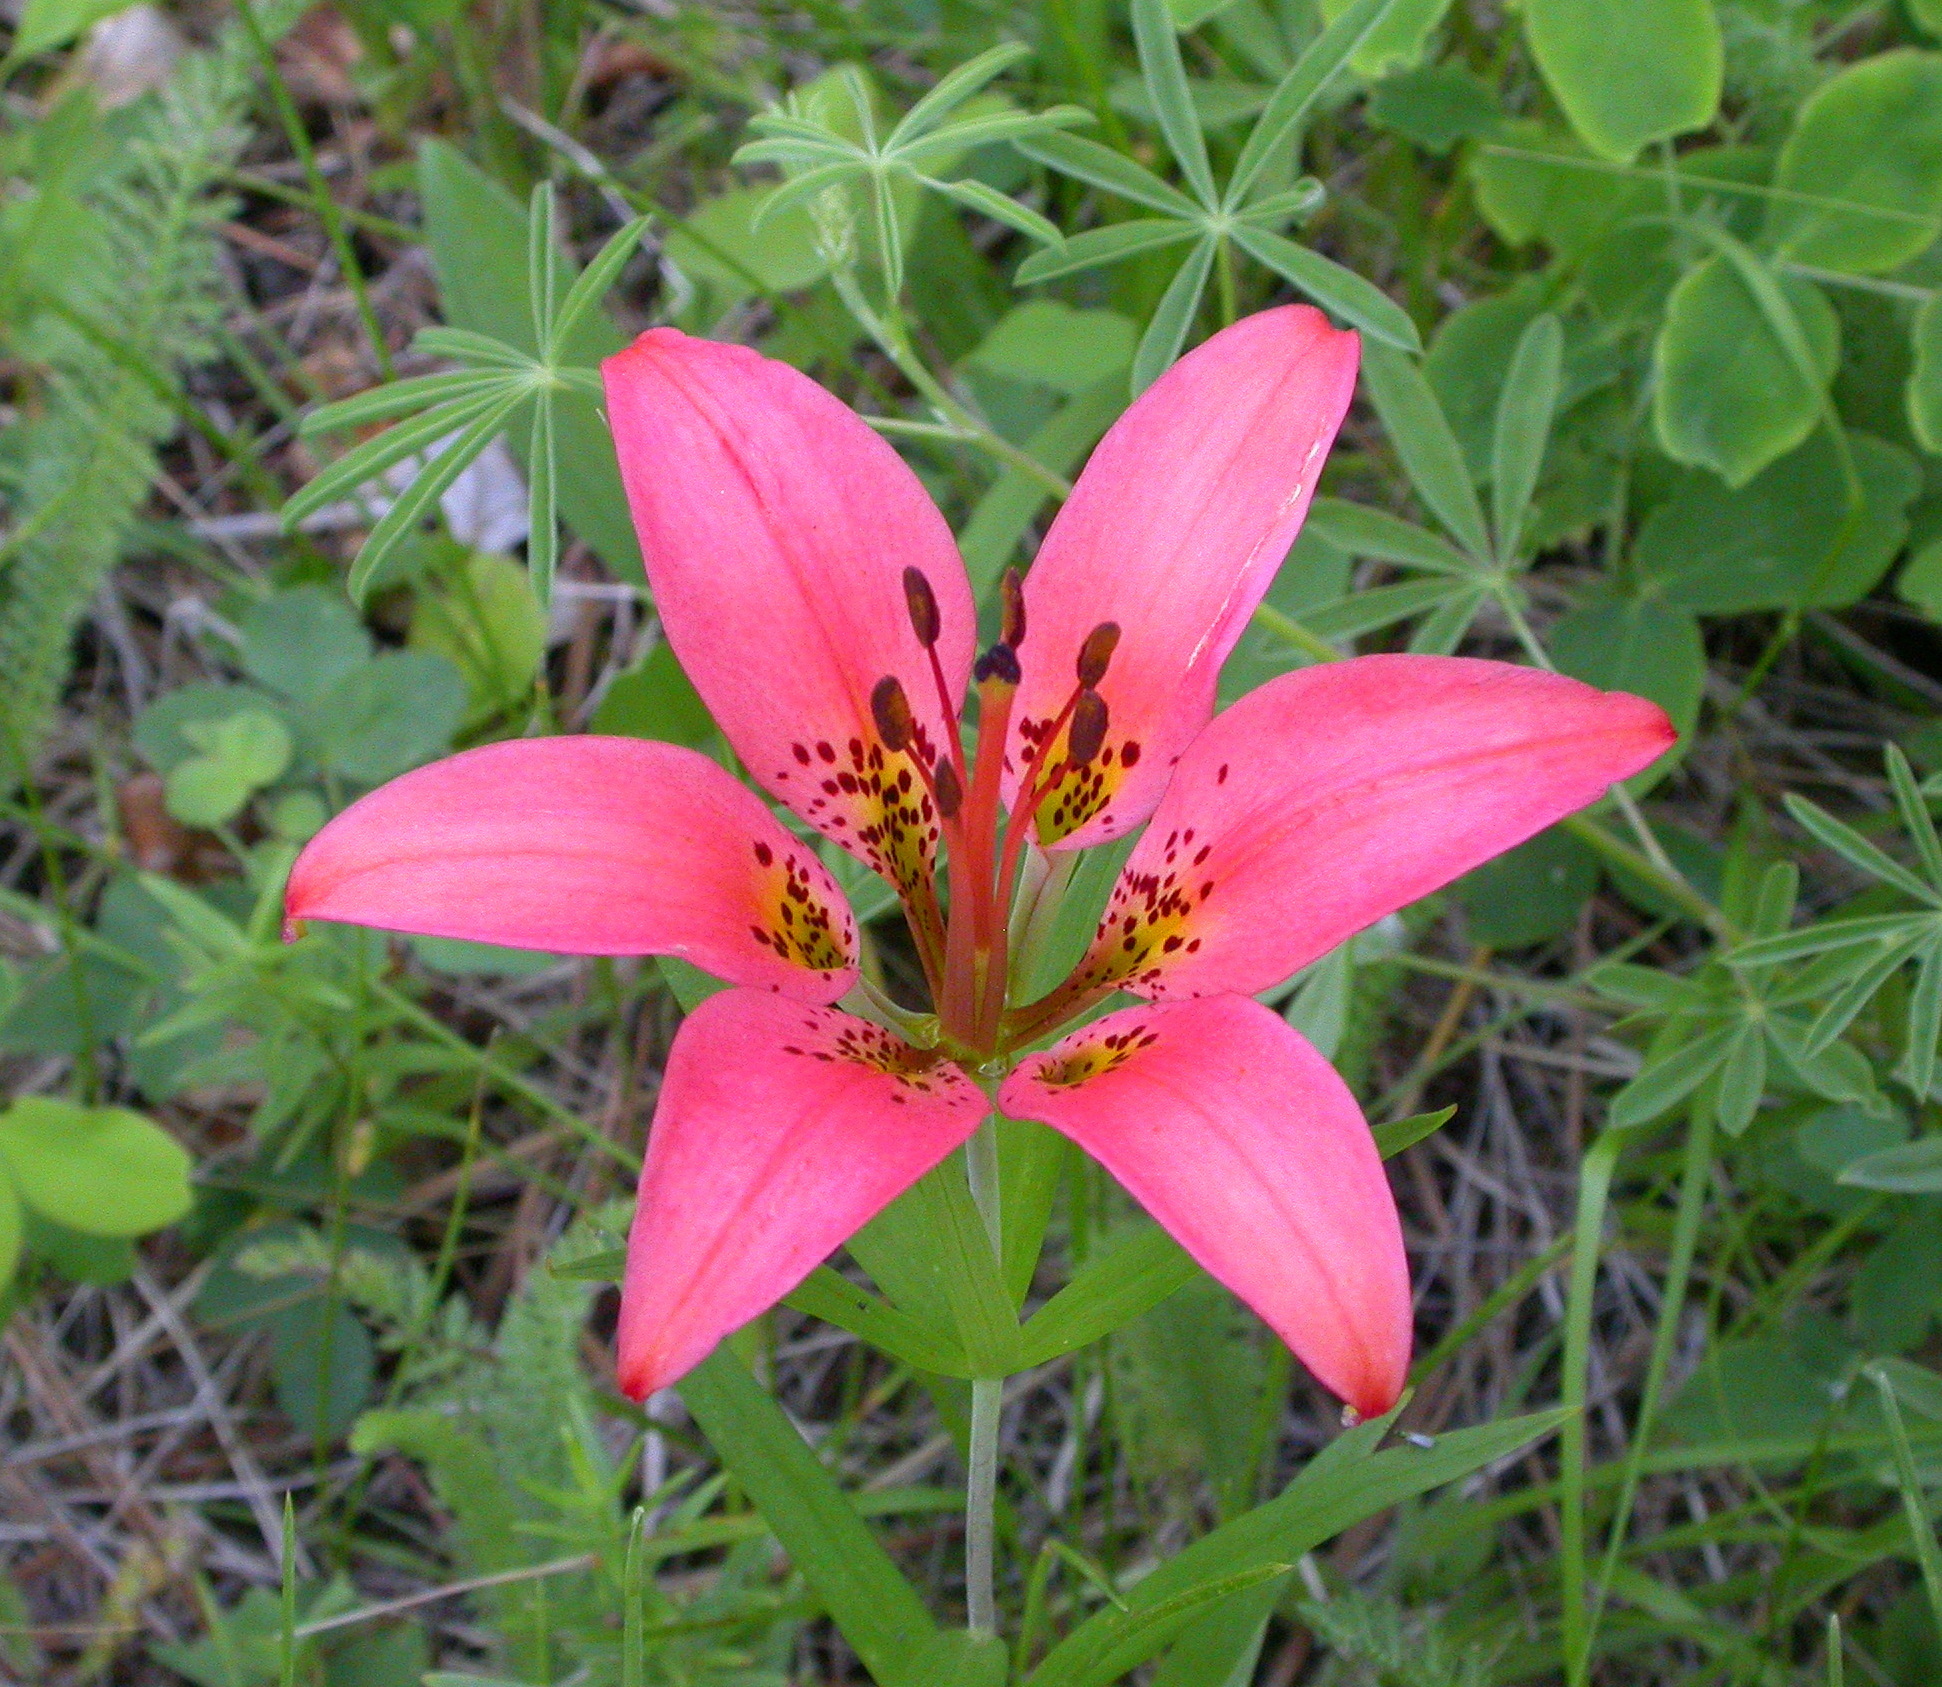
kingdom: Plantae
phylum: Tracheophyta
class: Liliopsida
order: Liliales
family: Liliaceae
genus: Lilium
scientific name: Lilium philadelphicum
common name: Red lily
